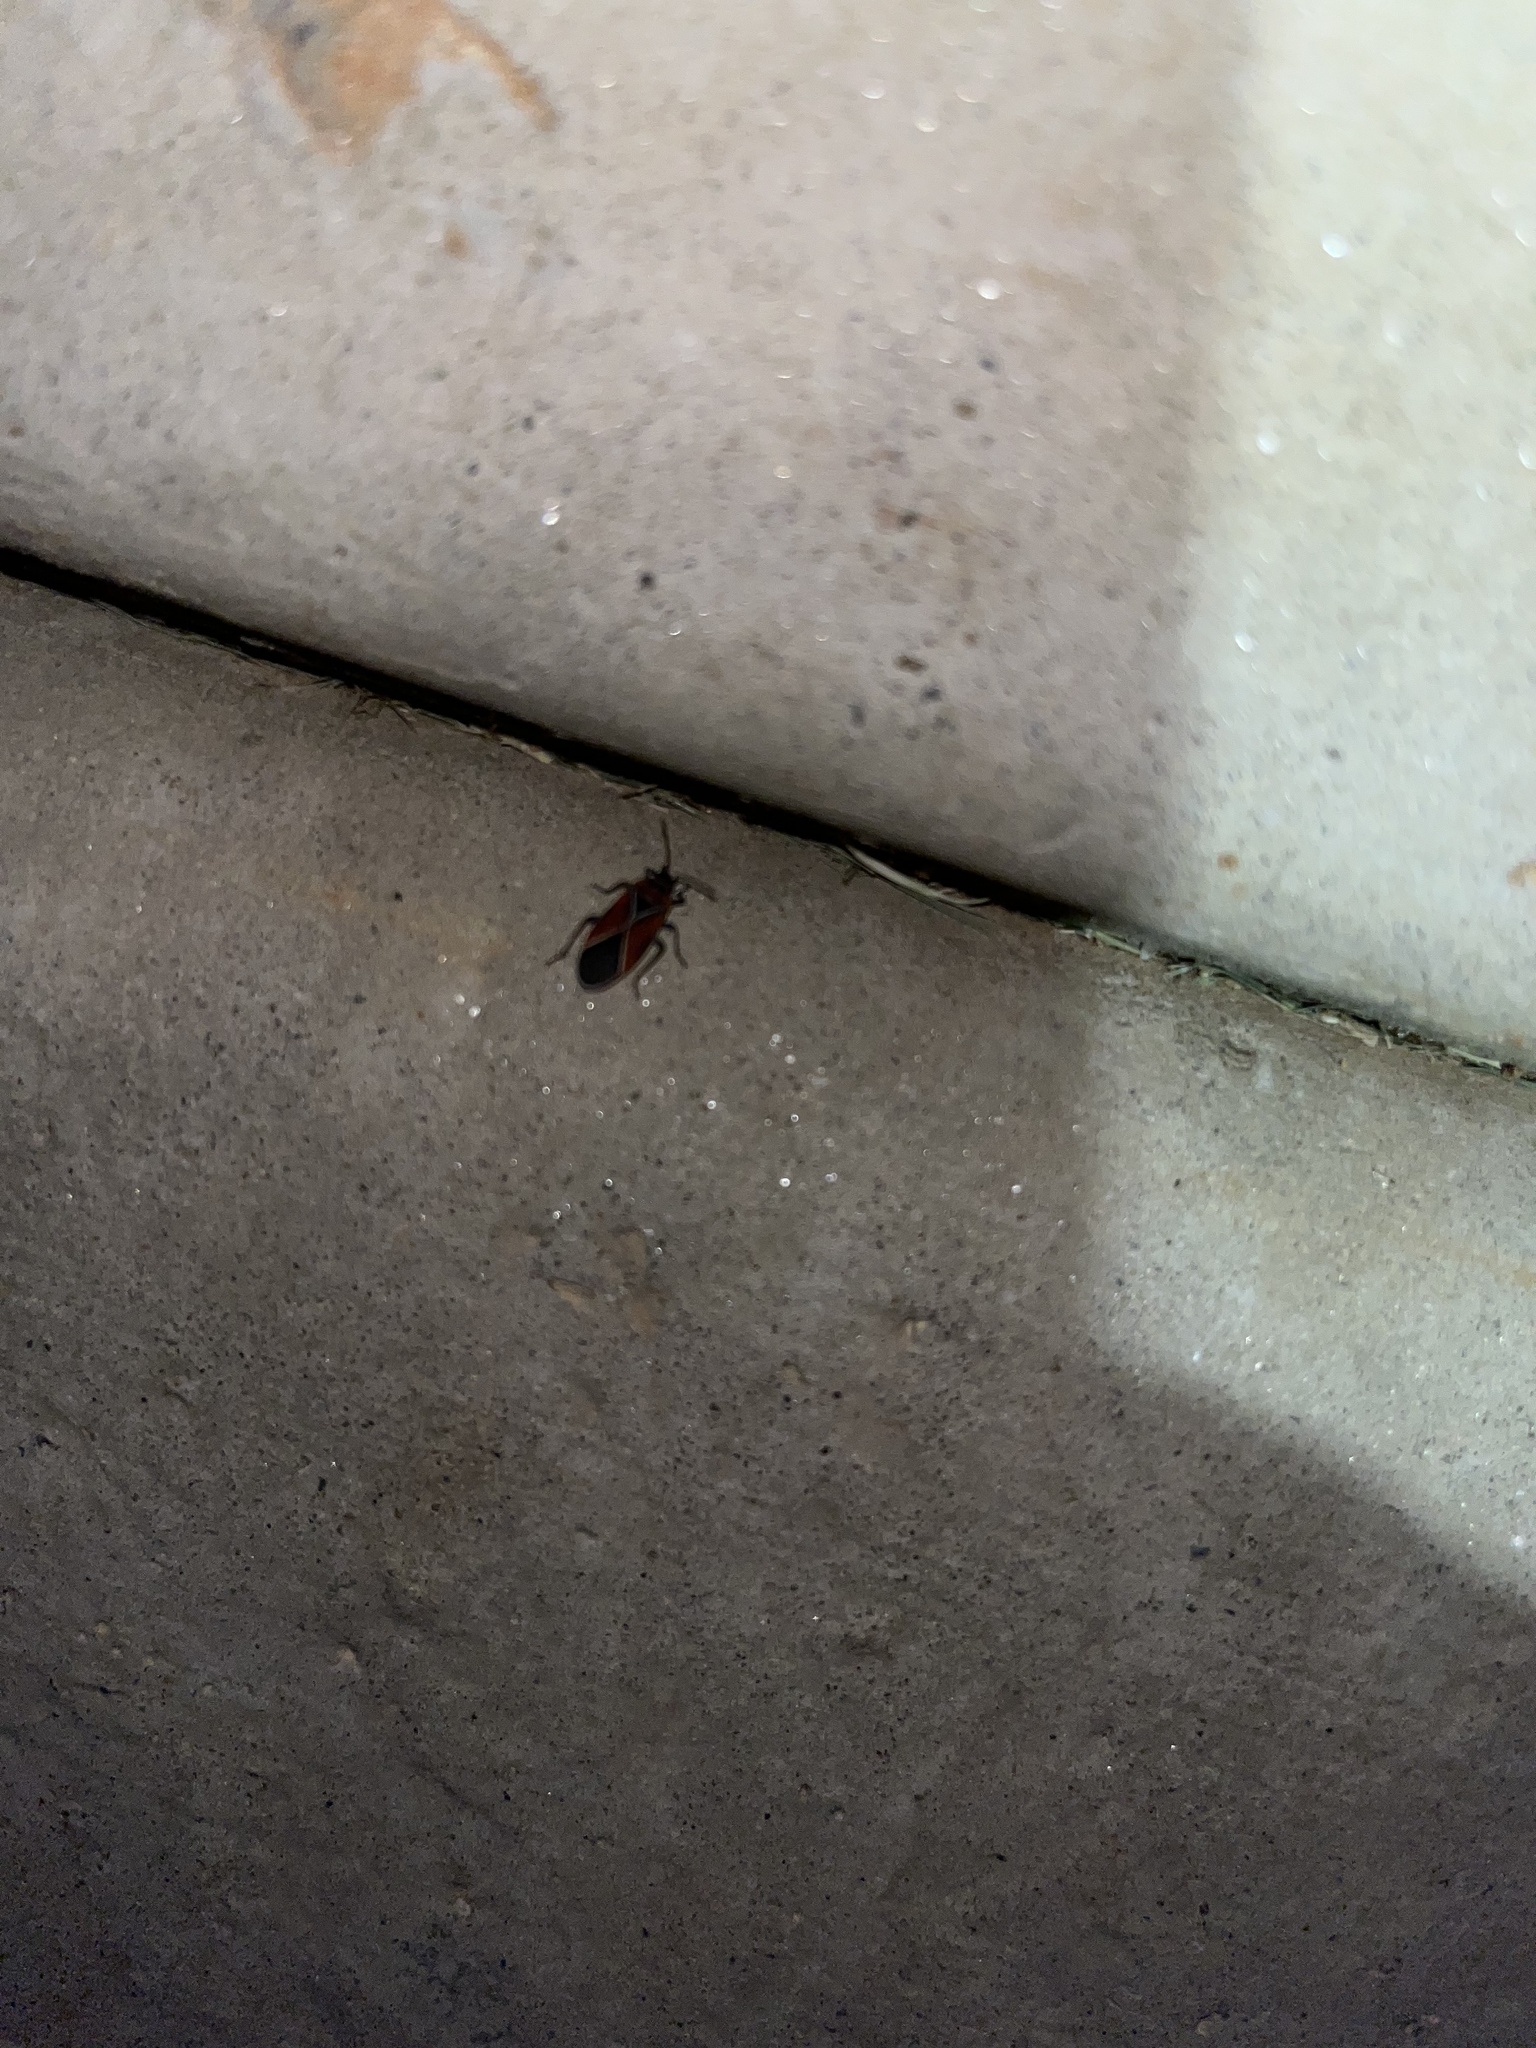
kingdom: Animalia
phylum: Arthropoda
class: Insecta
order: Hemiptera
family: Lygaeidae
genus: Neacoryphus
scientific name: Neacoryphus bicrucis
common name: Lygaeid bug
